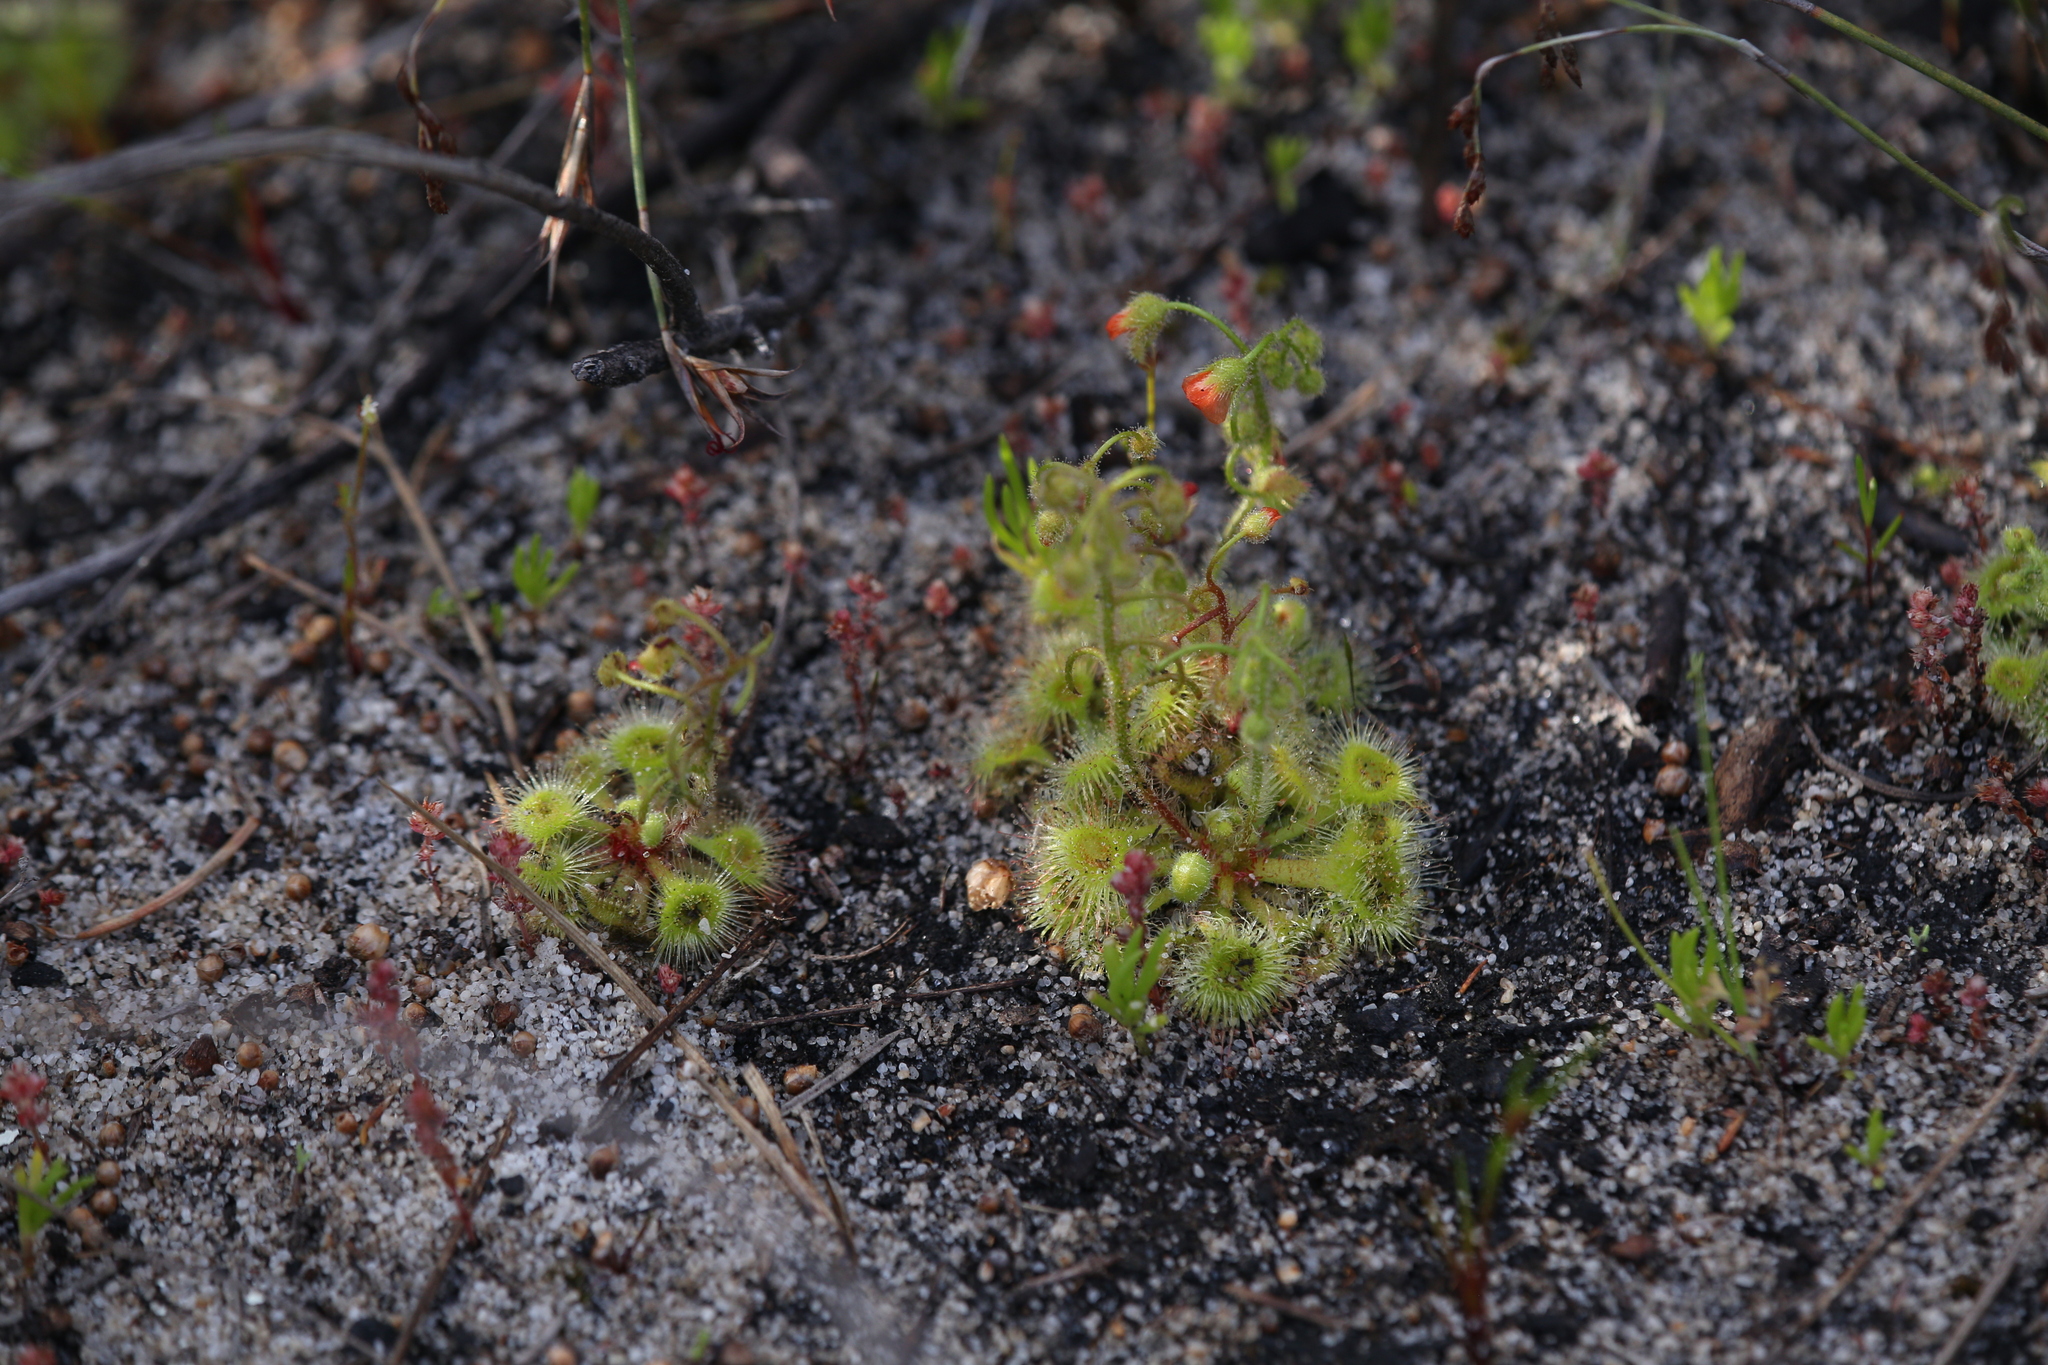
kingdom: Plantae
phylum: Tracheophyta
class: Magnoliopsida
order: Caryophyllales
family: Droseraceae
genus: Drosera
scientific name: Drosera glanduligera
